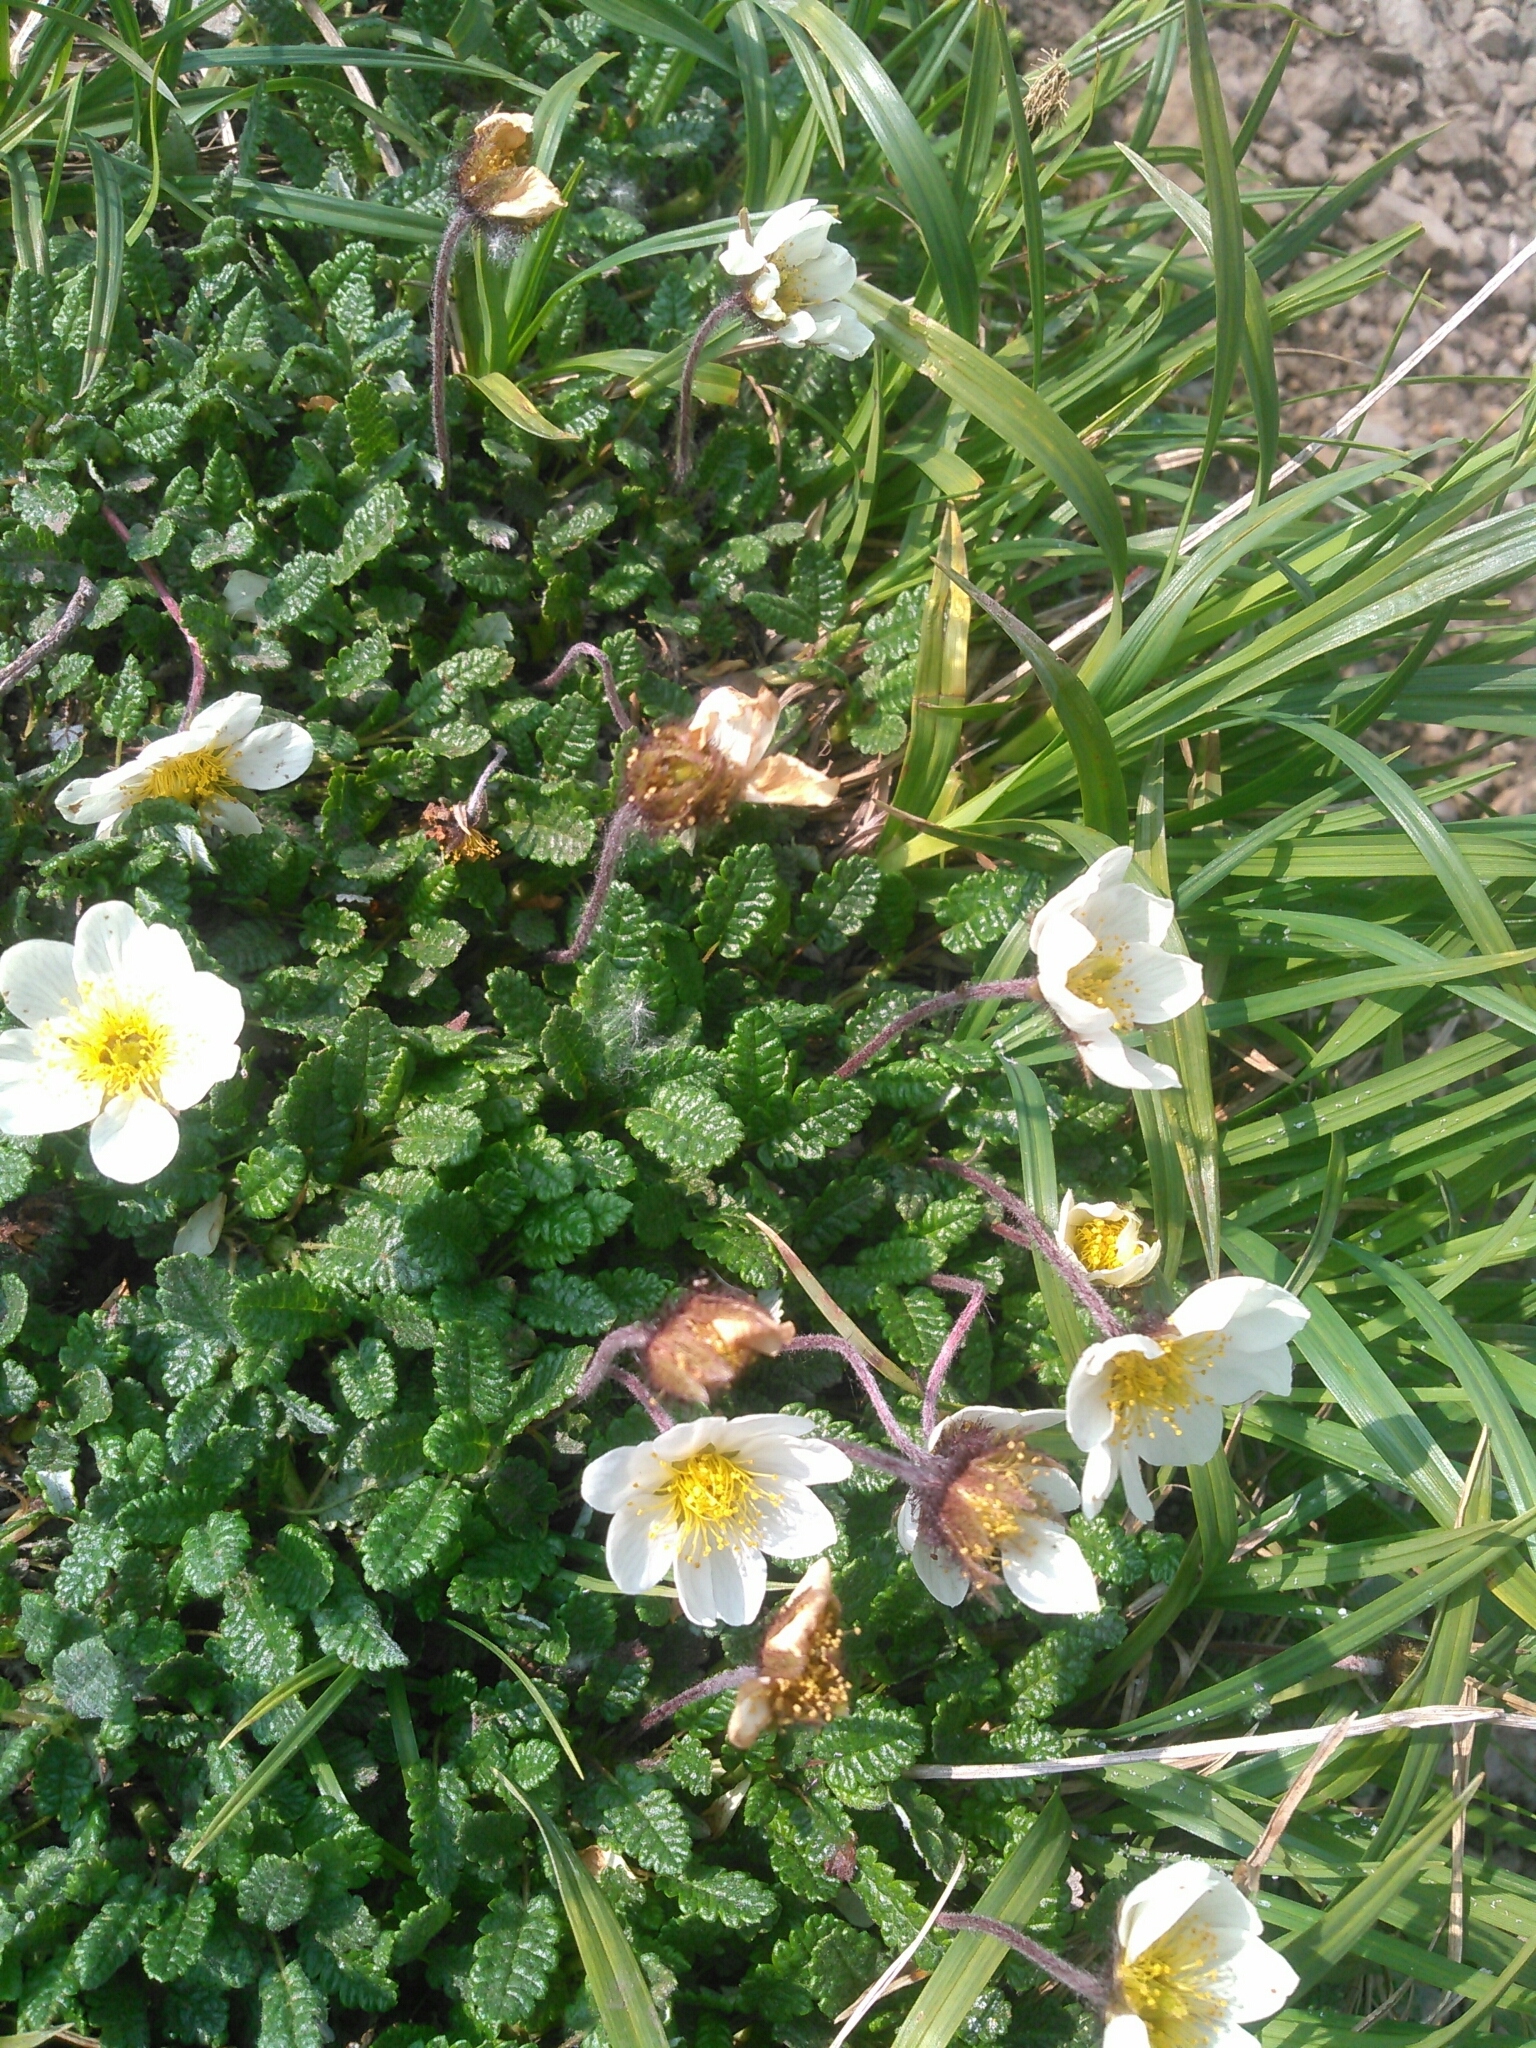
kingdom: Plantae
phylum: Tracheophyta
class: Magnoliopsida
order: Rosales
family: Rosaceae
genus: Dryas
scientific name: Dryas octopetala
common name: Eight-petal mountain-avens
